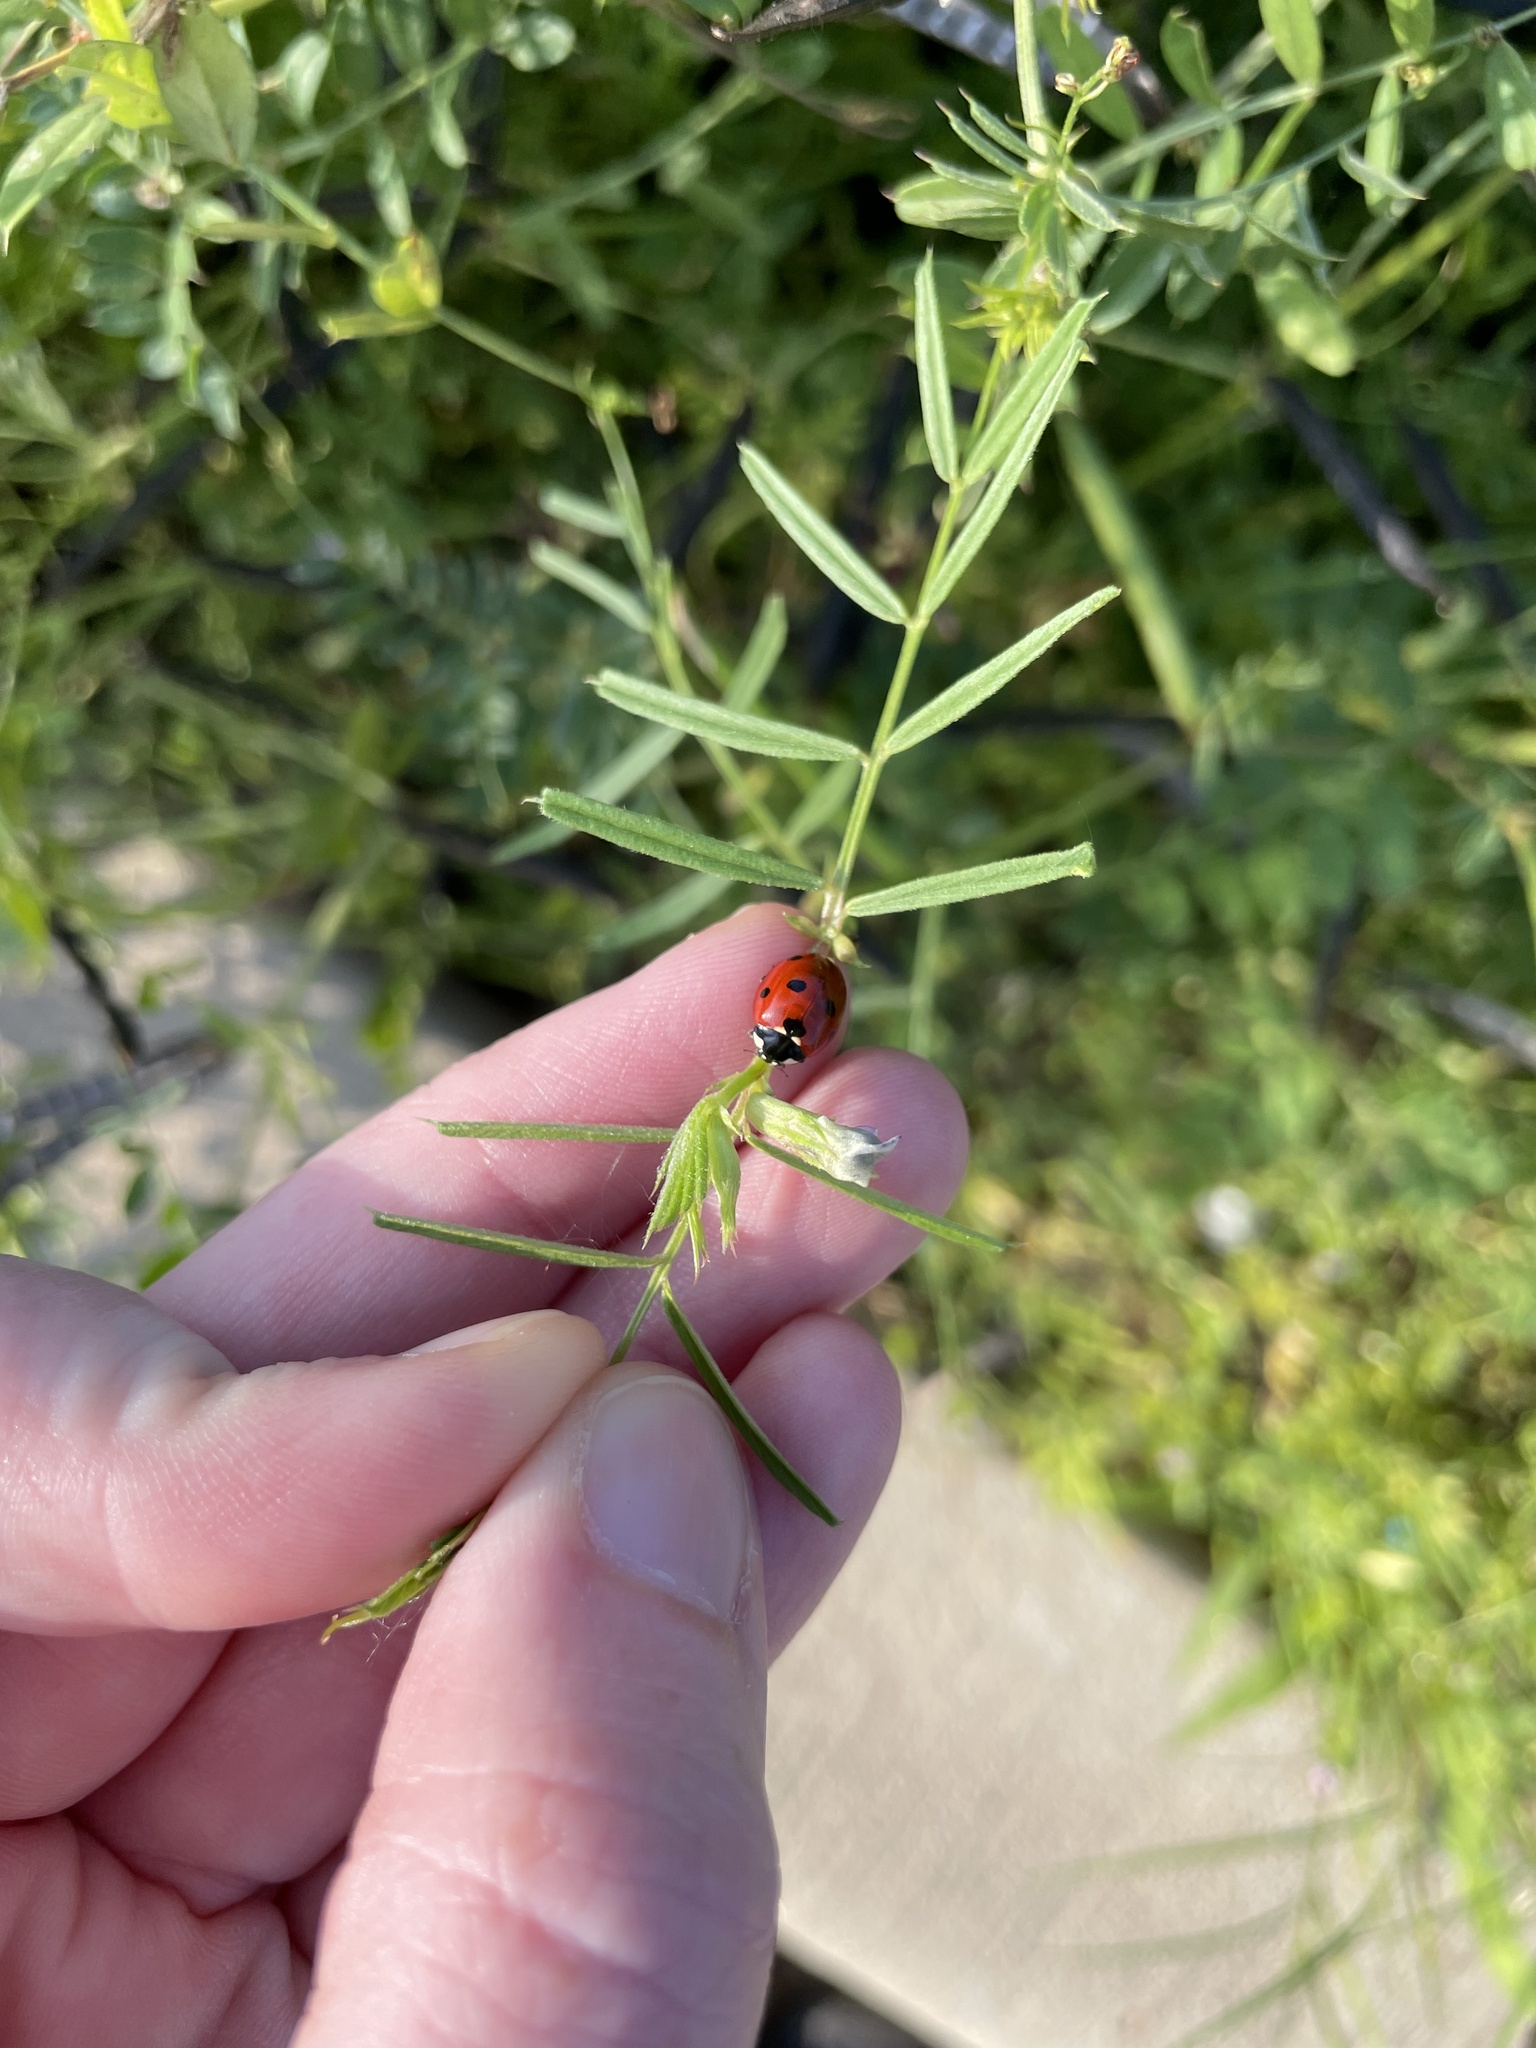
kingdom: Animalia
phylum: Arthropoda
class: Insecta
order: Coleoptera
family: Coccinellidae
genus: Coccinella
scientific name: Coccinella septempunctata
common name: Sevenspotted lady beetle
